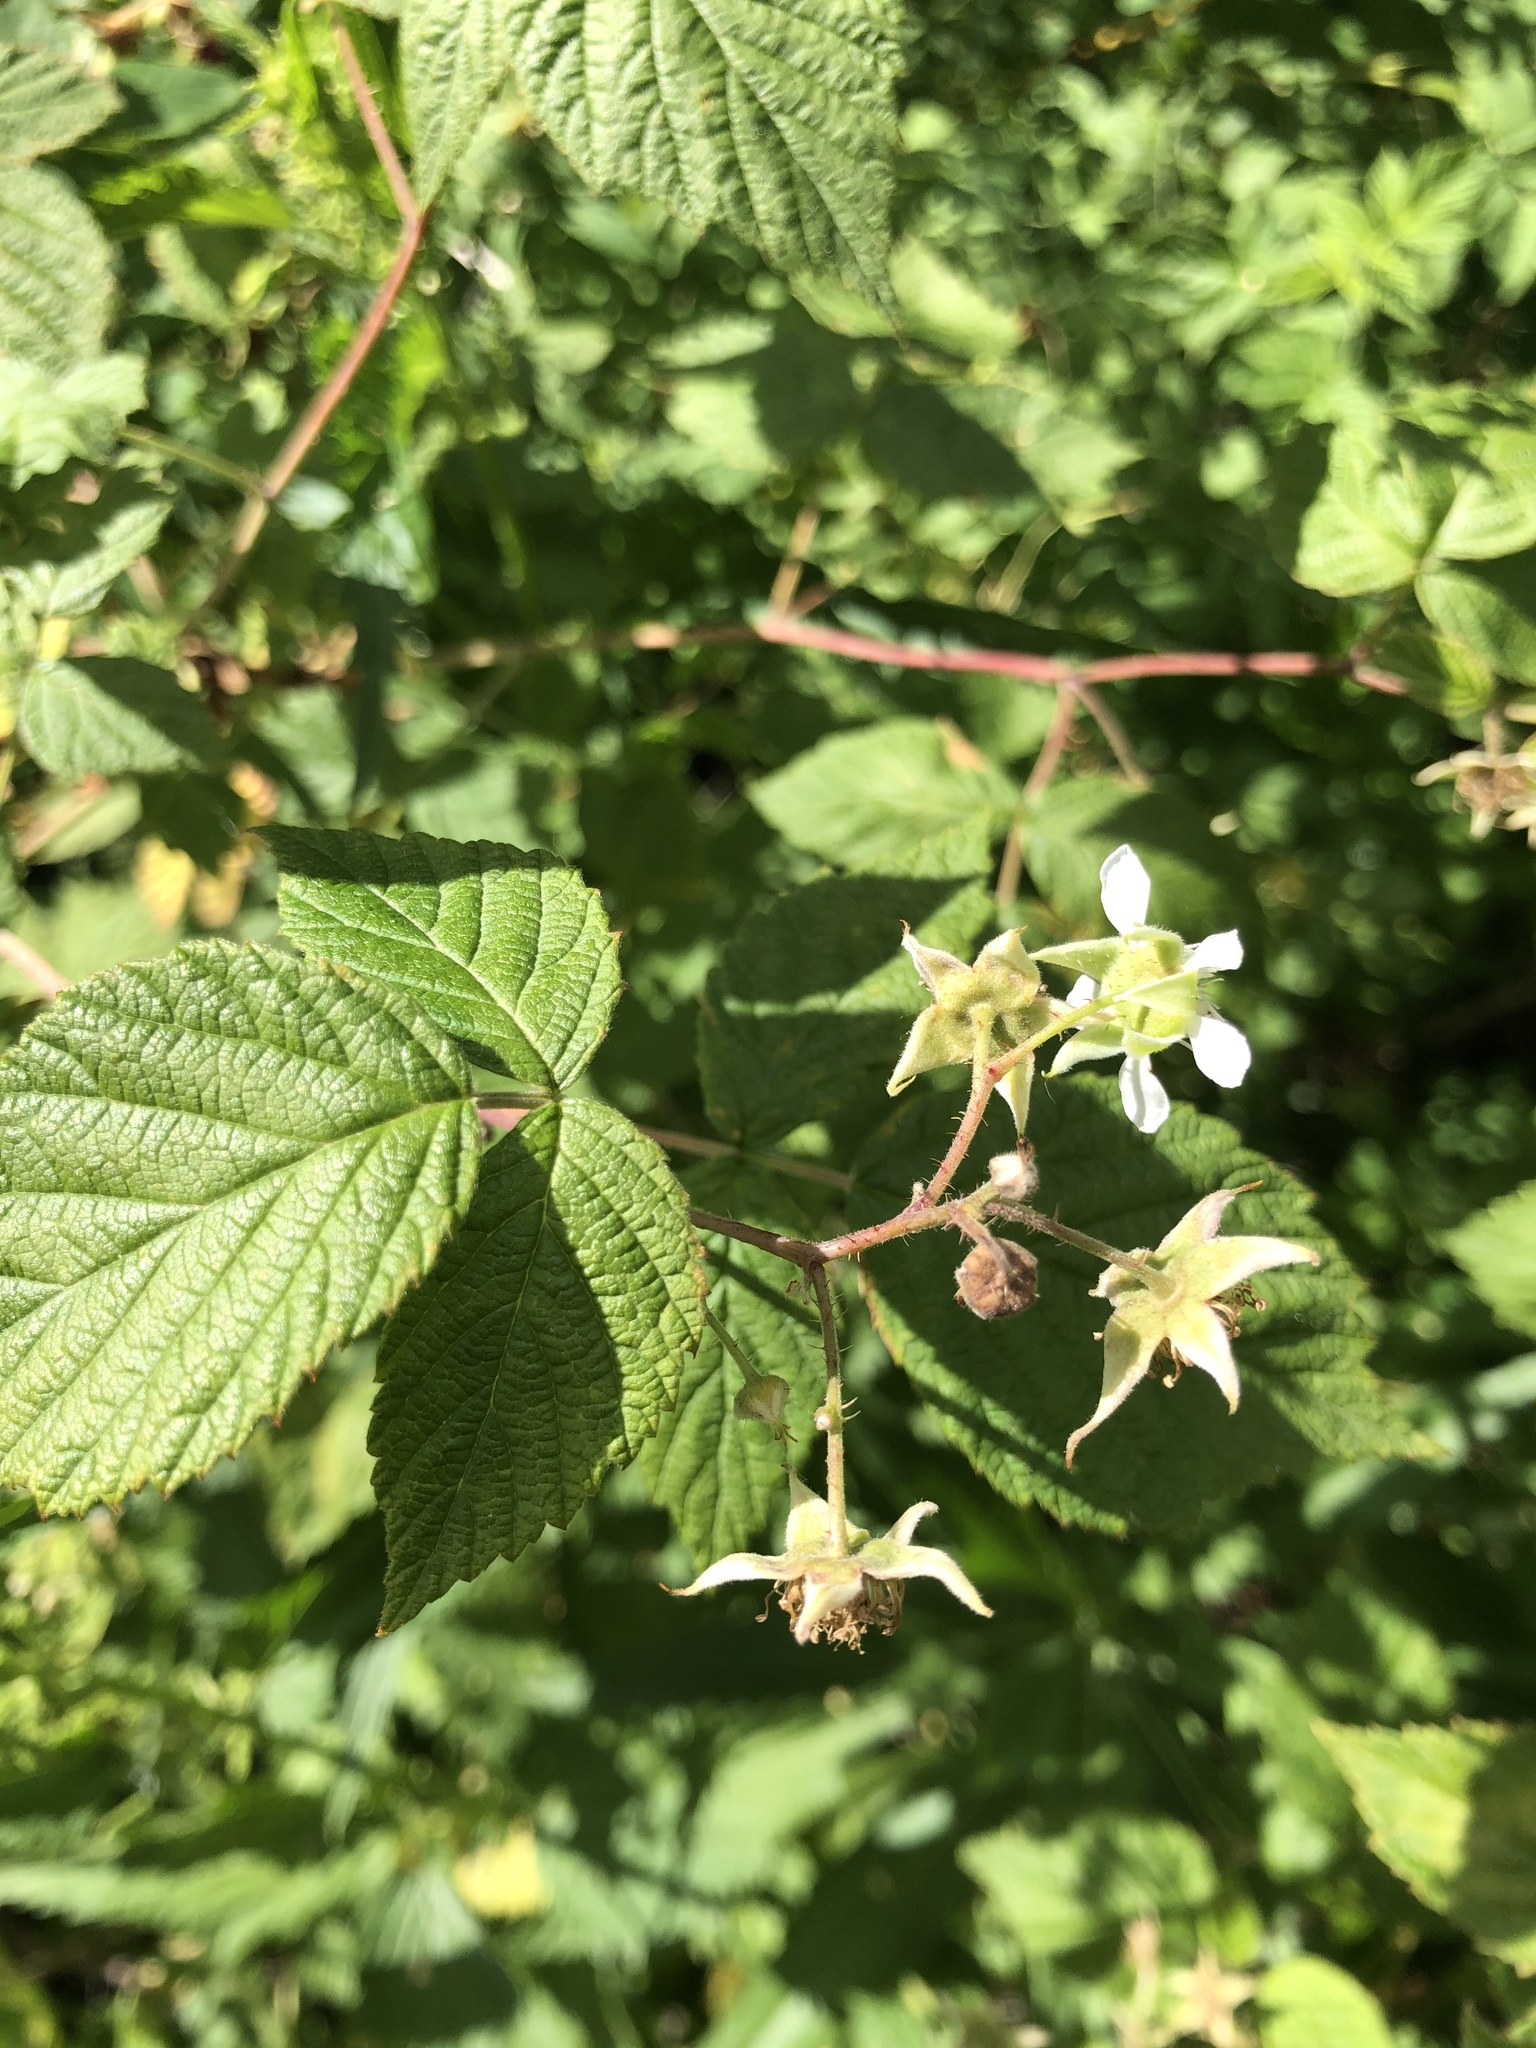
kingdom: Plantae
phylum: Tracheophyta
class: Magnoliopsida
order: Rosales
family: Rosaceae
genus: Rubus
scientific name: Rubus idaeus
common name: Raspberry
